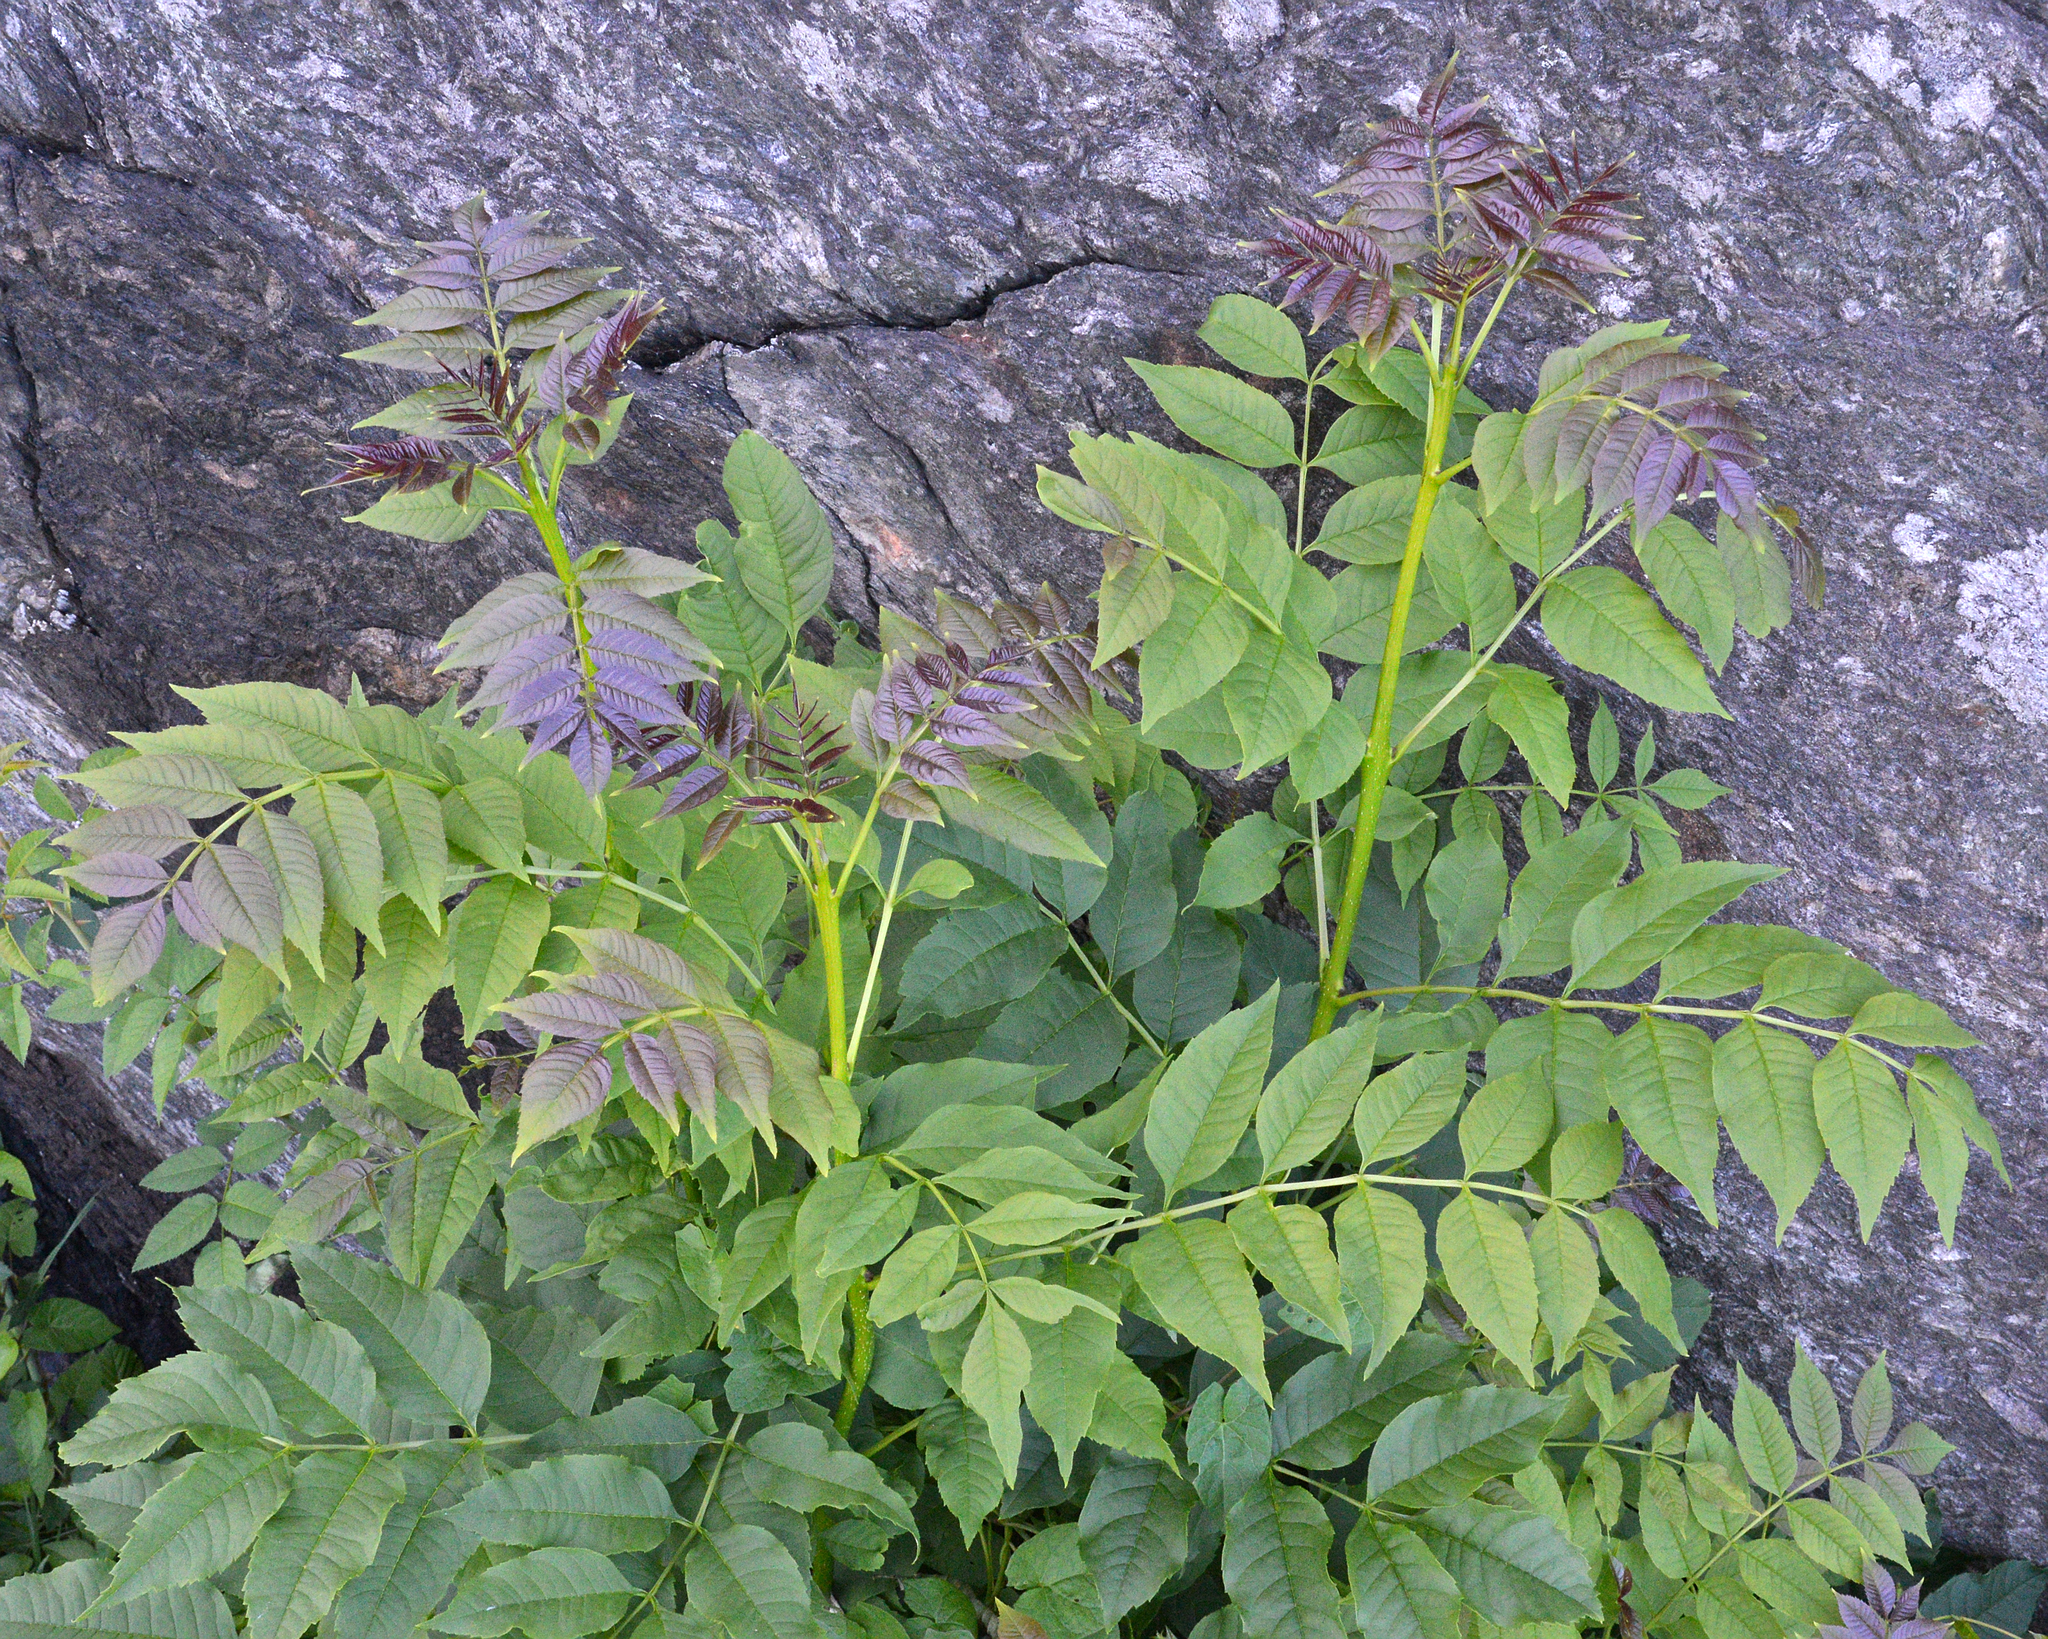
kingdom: Plantae
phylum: Tracheophyta
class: Magnoliopsida
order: Lamiales
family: Oleaceae
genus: Fraxinus
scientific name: Fraxinus excelsior
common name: European ash
